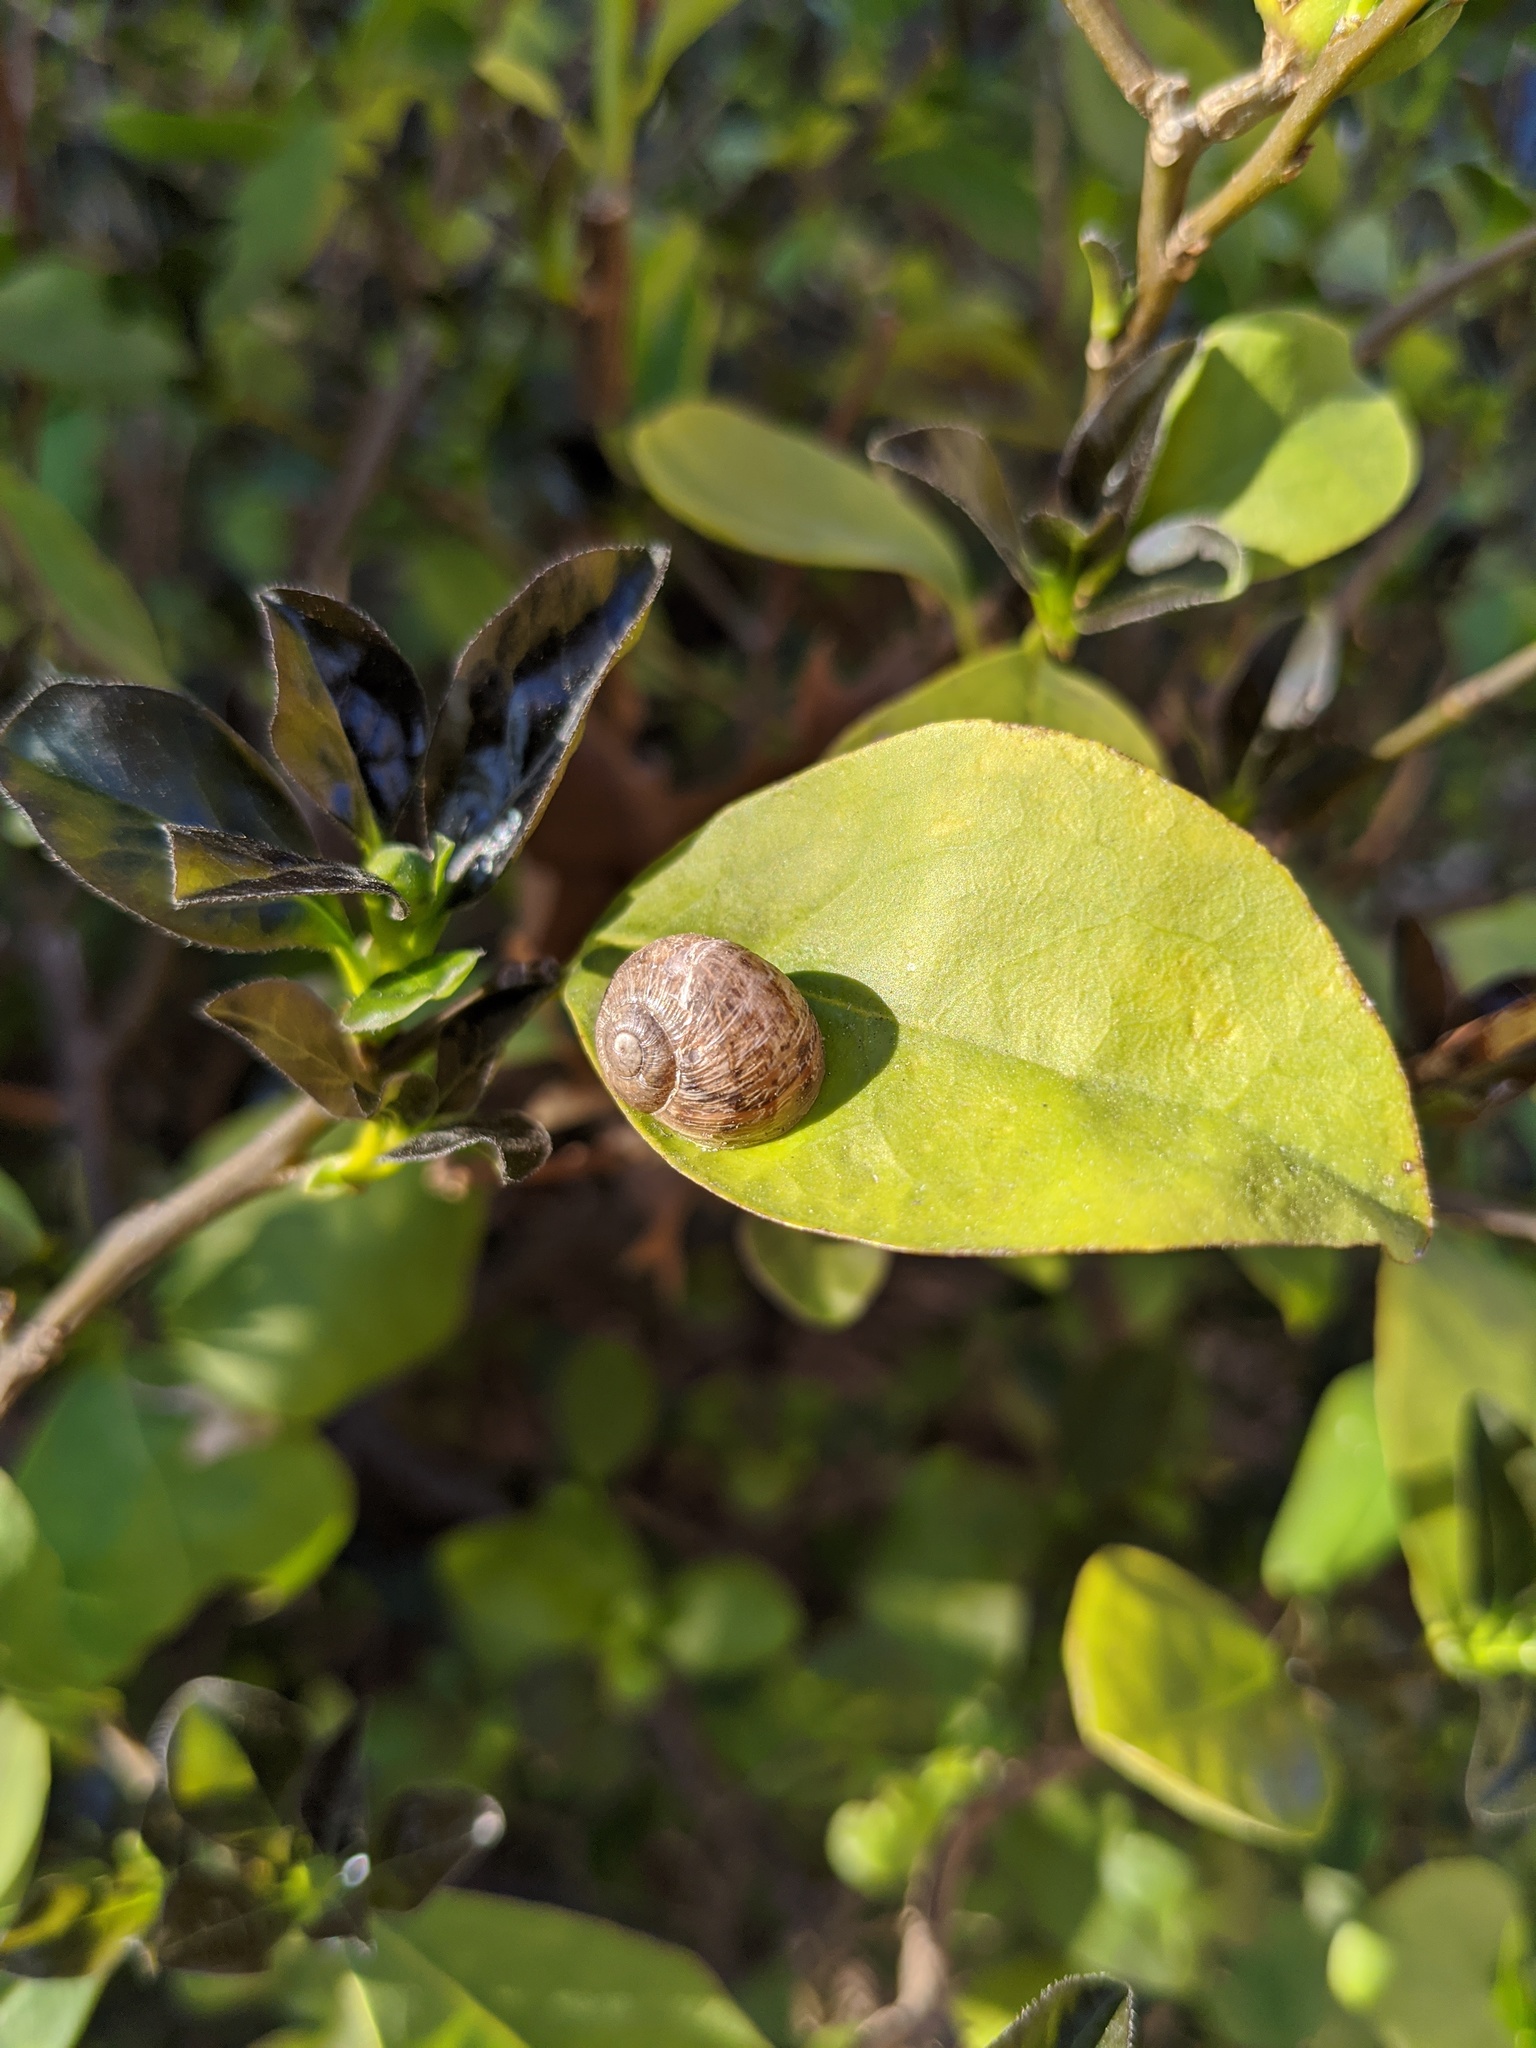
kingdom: Animalia
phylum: Mollusca
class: Gastropoda
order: Stylommatophora
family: Helicidae
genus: Cornu
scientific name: Cornu aspersum
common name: Brown garden snail
